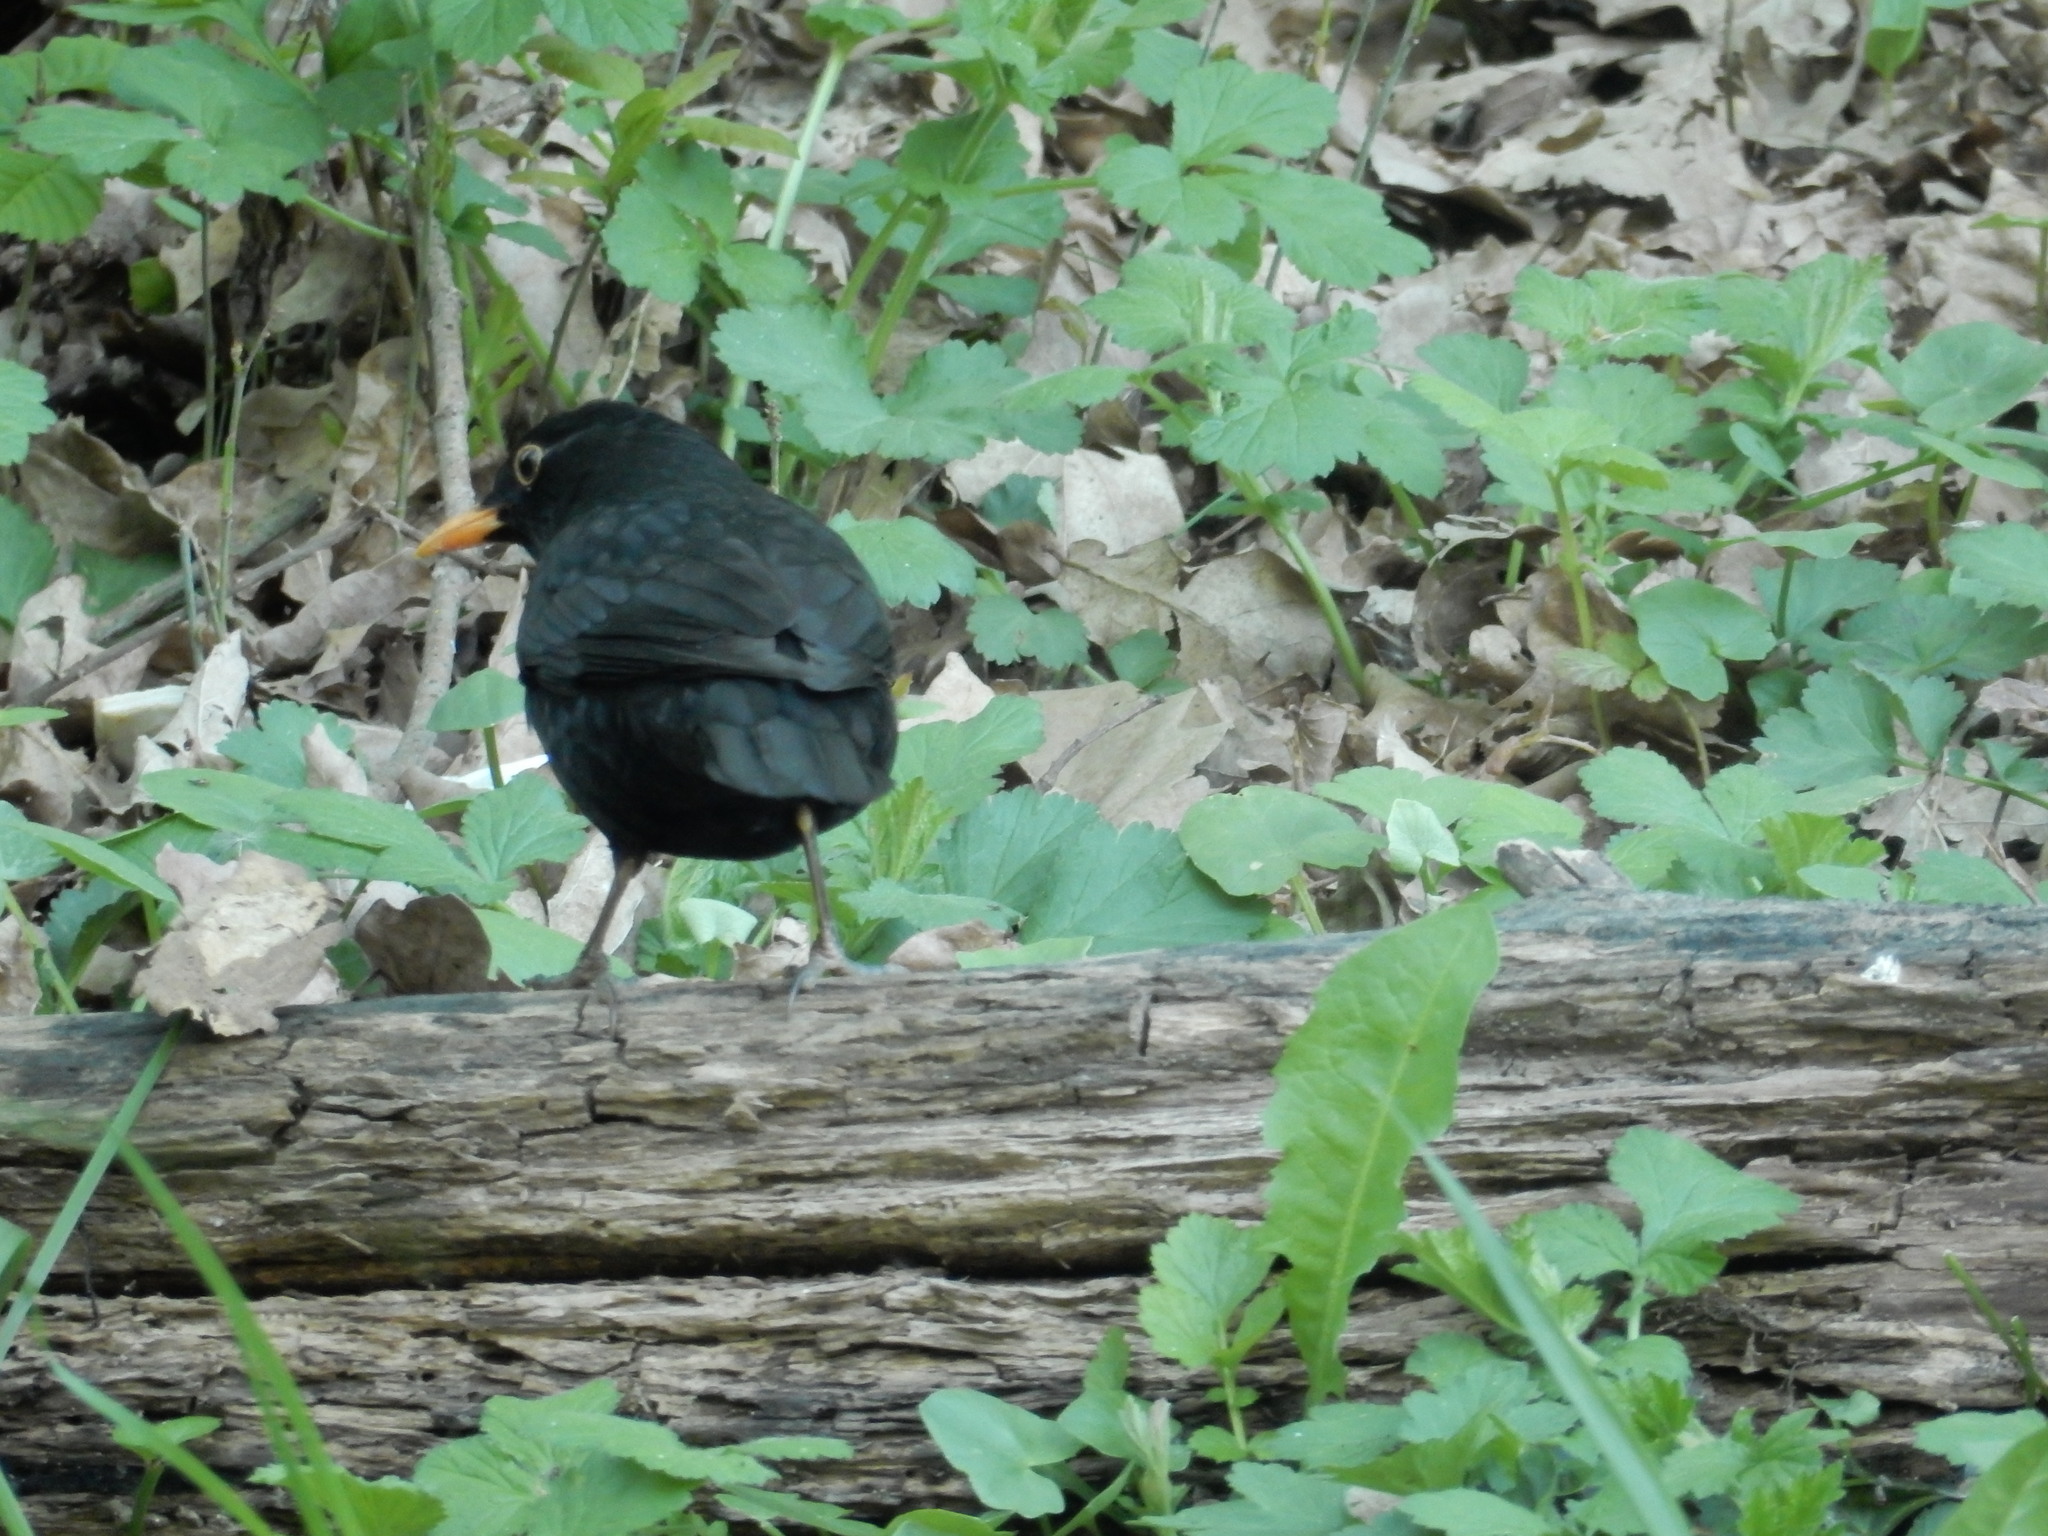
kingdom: Animalia
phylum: Chordata
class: Aves
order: Passeriformes
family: Turdidae
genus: Turdus
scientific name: Turdus merula
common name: Common blackbird
